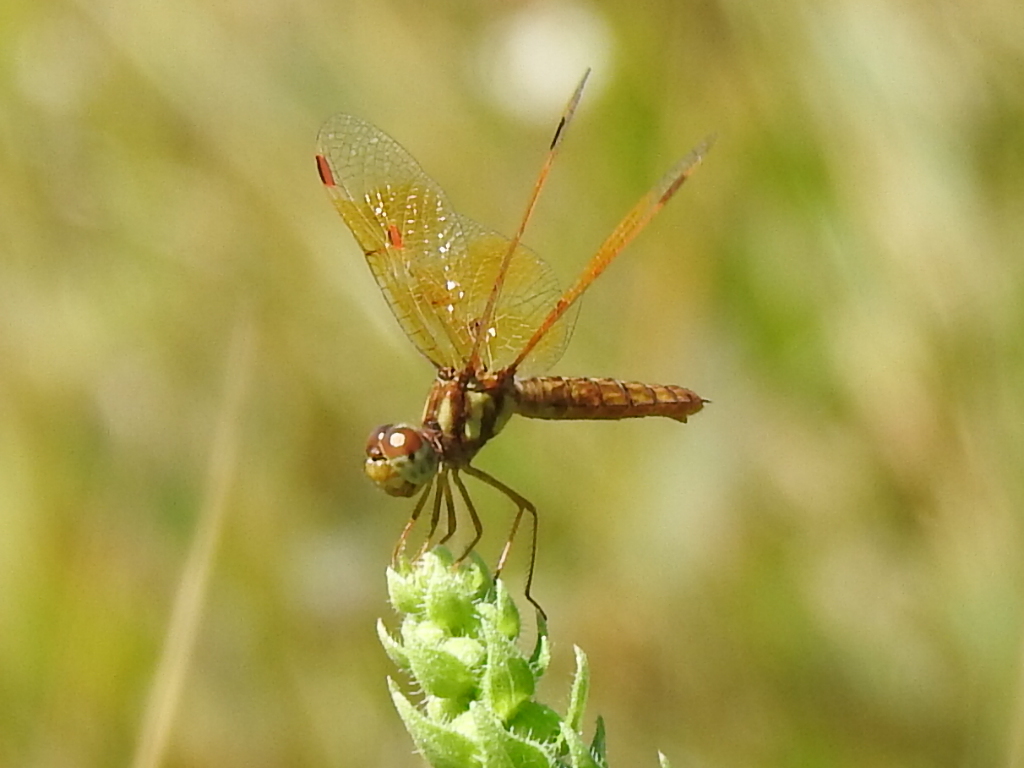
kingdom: Animalia
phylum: Arthropoda
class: Insecta
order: Odonata
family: Libellulidae
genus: Perithemis
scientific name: Perithemis tenera
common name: Eastern amberwing
